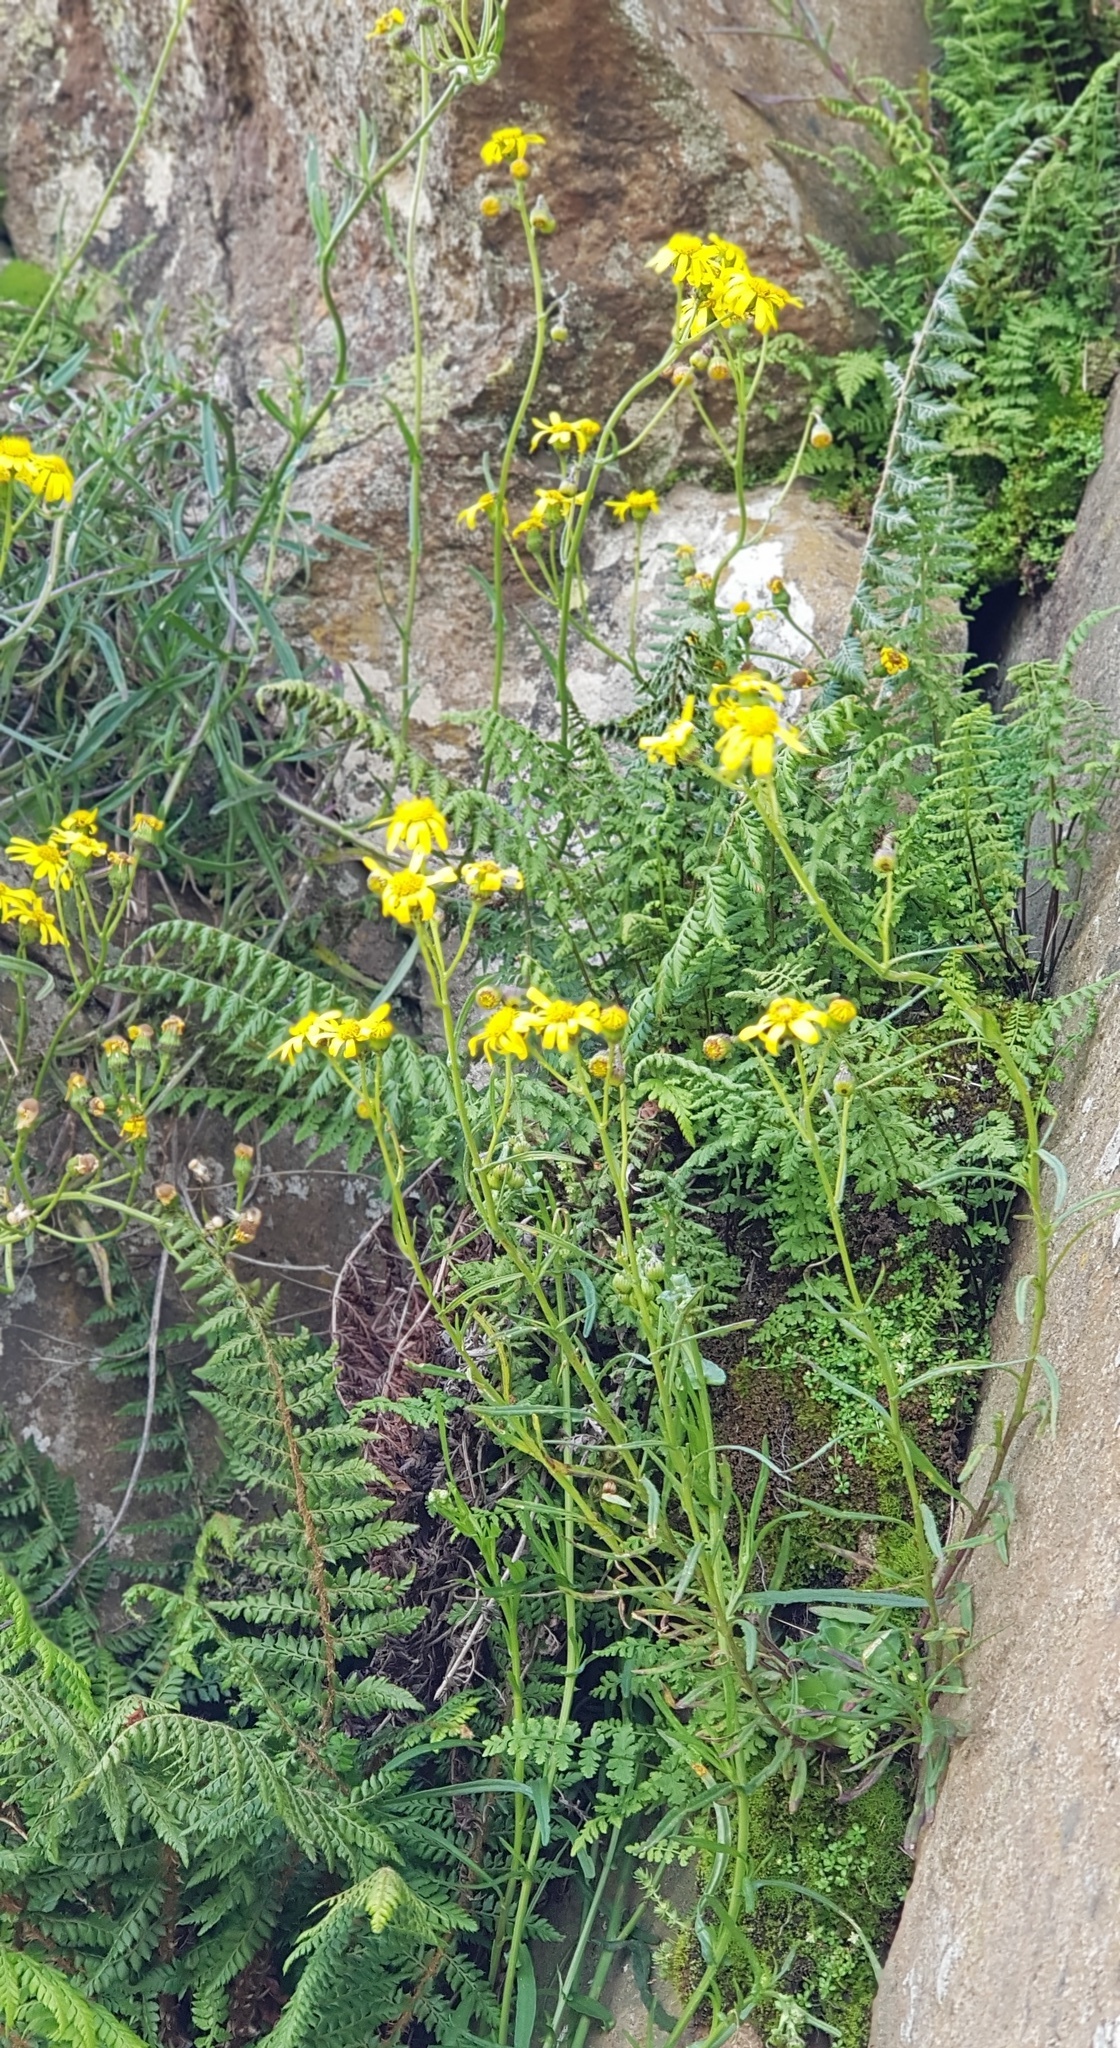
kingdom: Plantae
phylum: Tracheophyta
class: Magnoliopsida
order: Asterales
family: Asteraceae
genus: Senecio
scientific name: Senecio inaequidens
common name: Narrow-leaved ragwort
